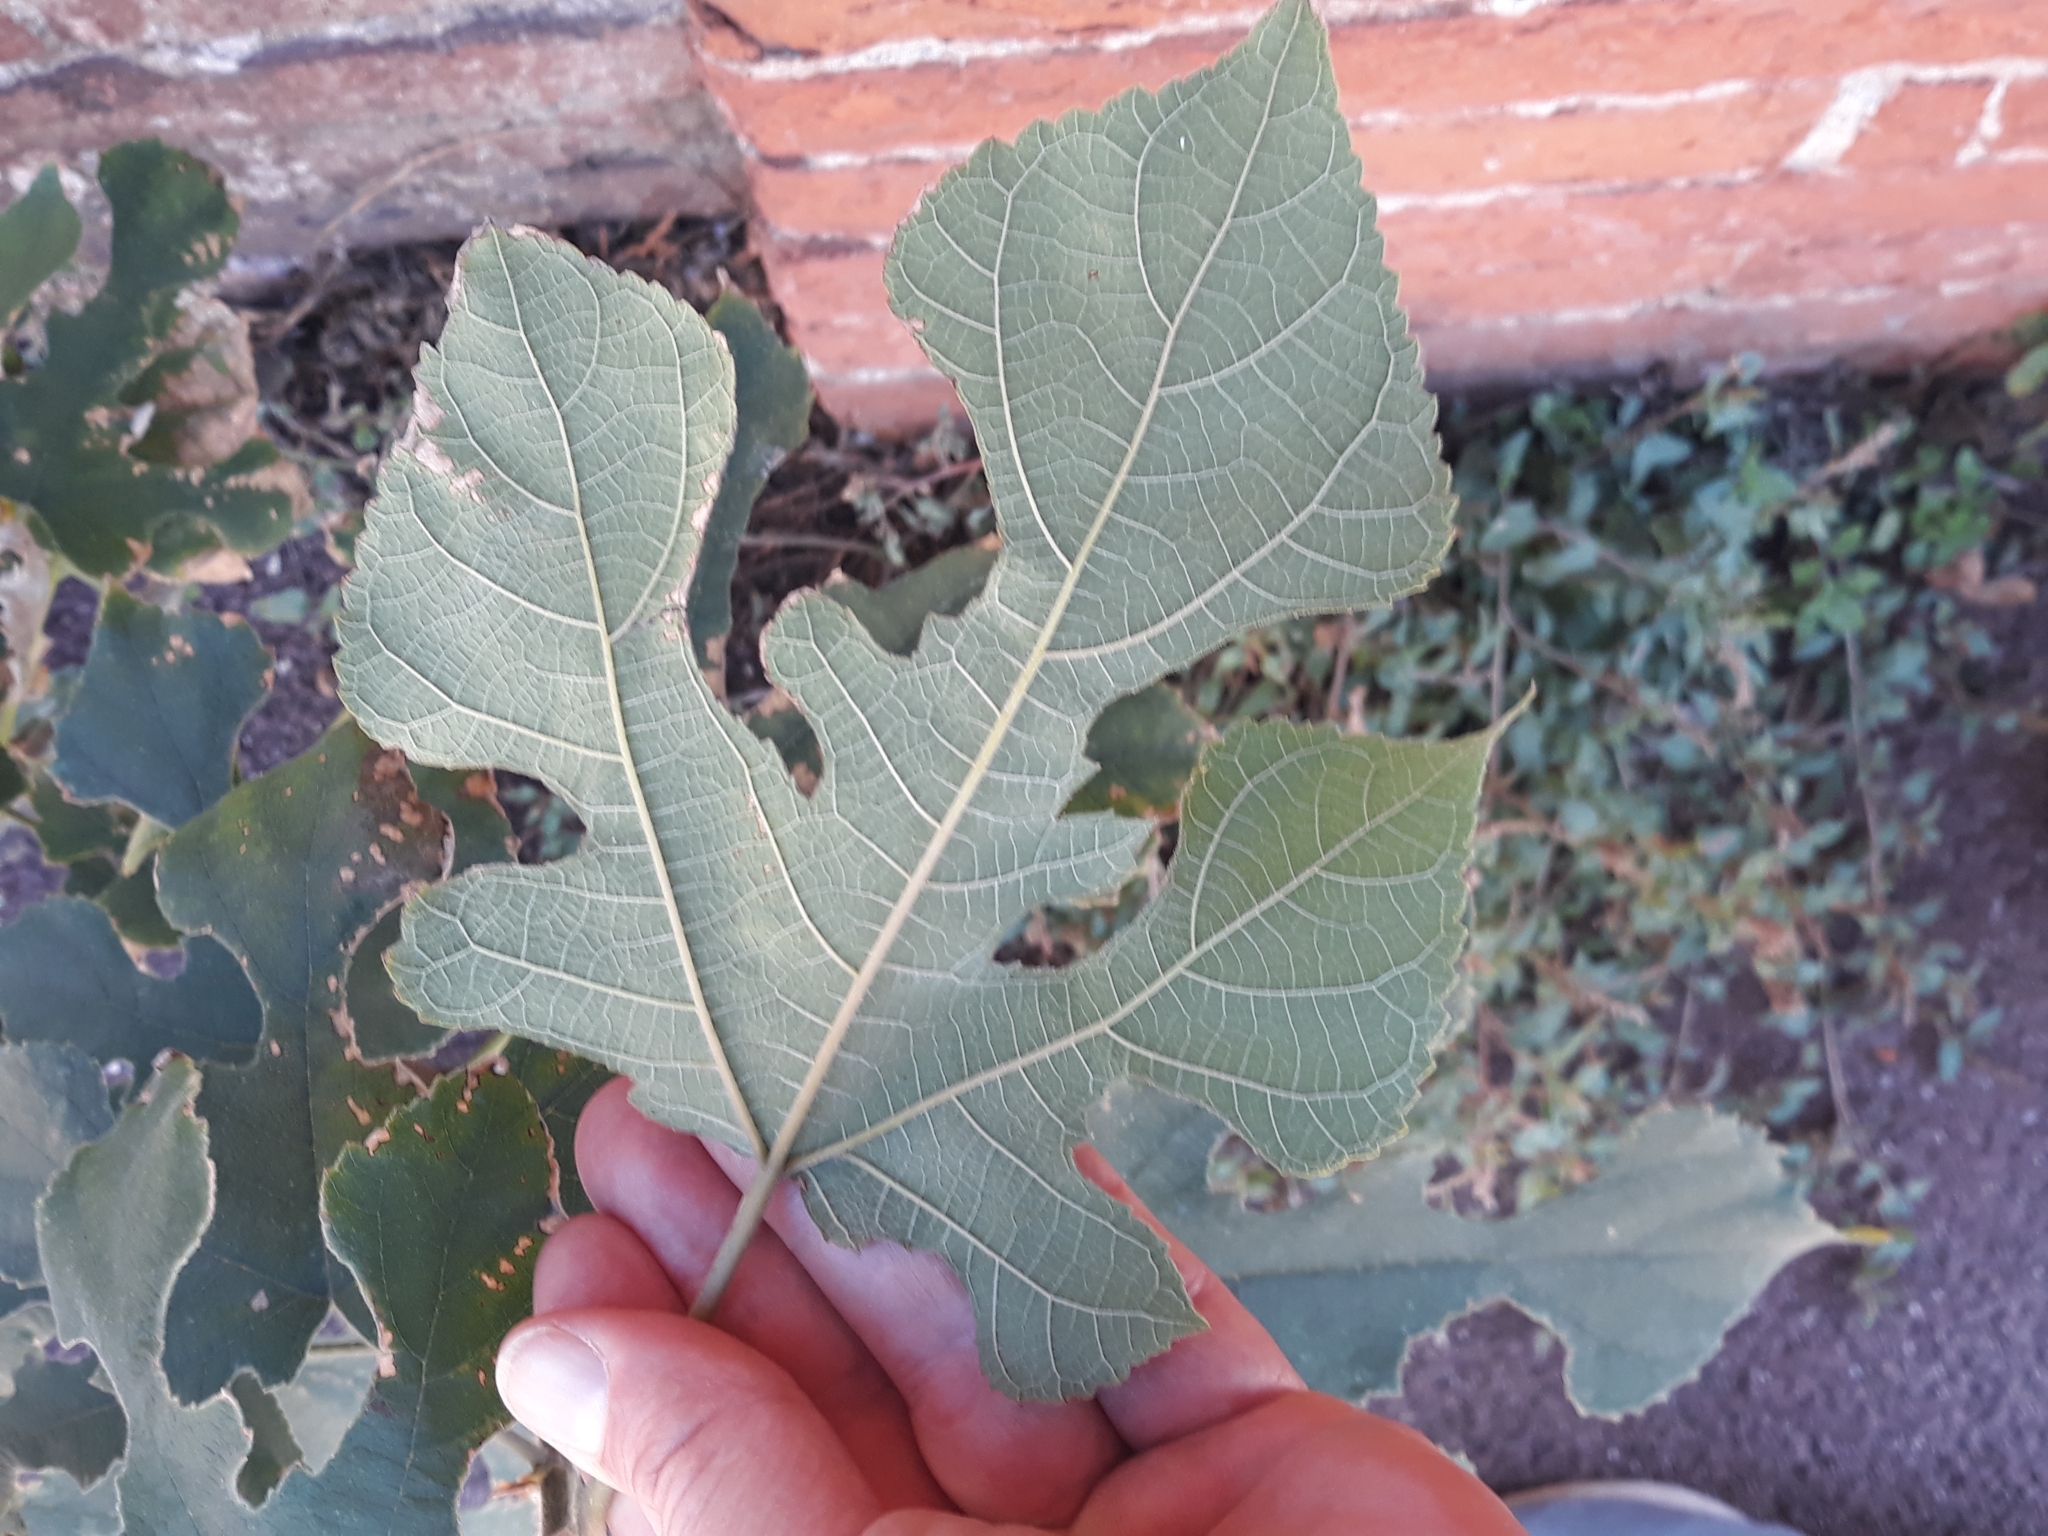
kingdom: Plantae
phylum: Tracheophyta
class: Magnoliopsida
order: Rosales
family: Moraceae
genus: Broussonetia
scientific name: Broussonetia papyrifera
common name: Paper mulberry
